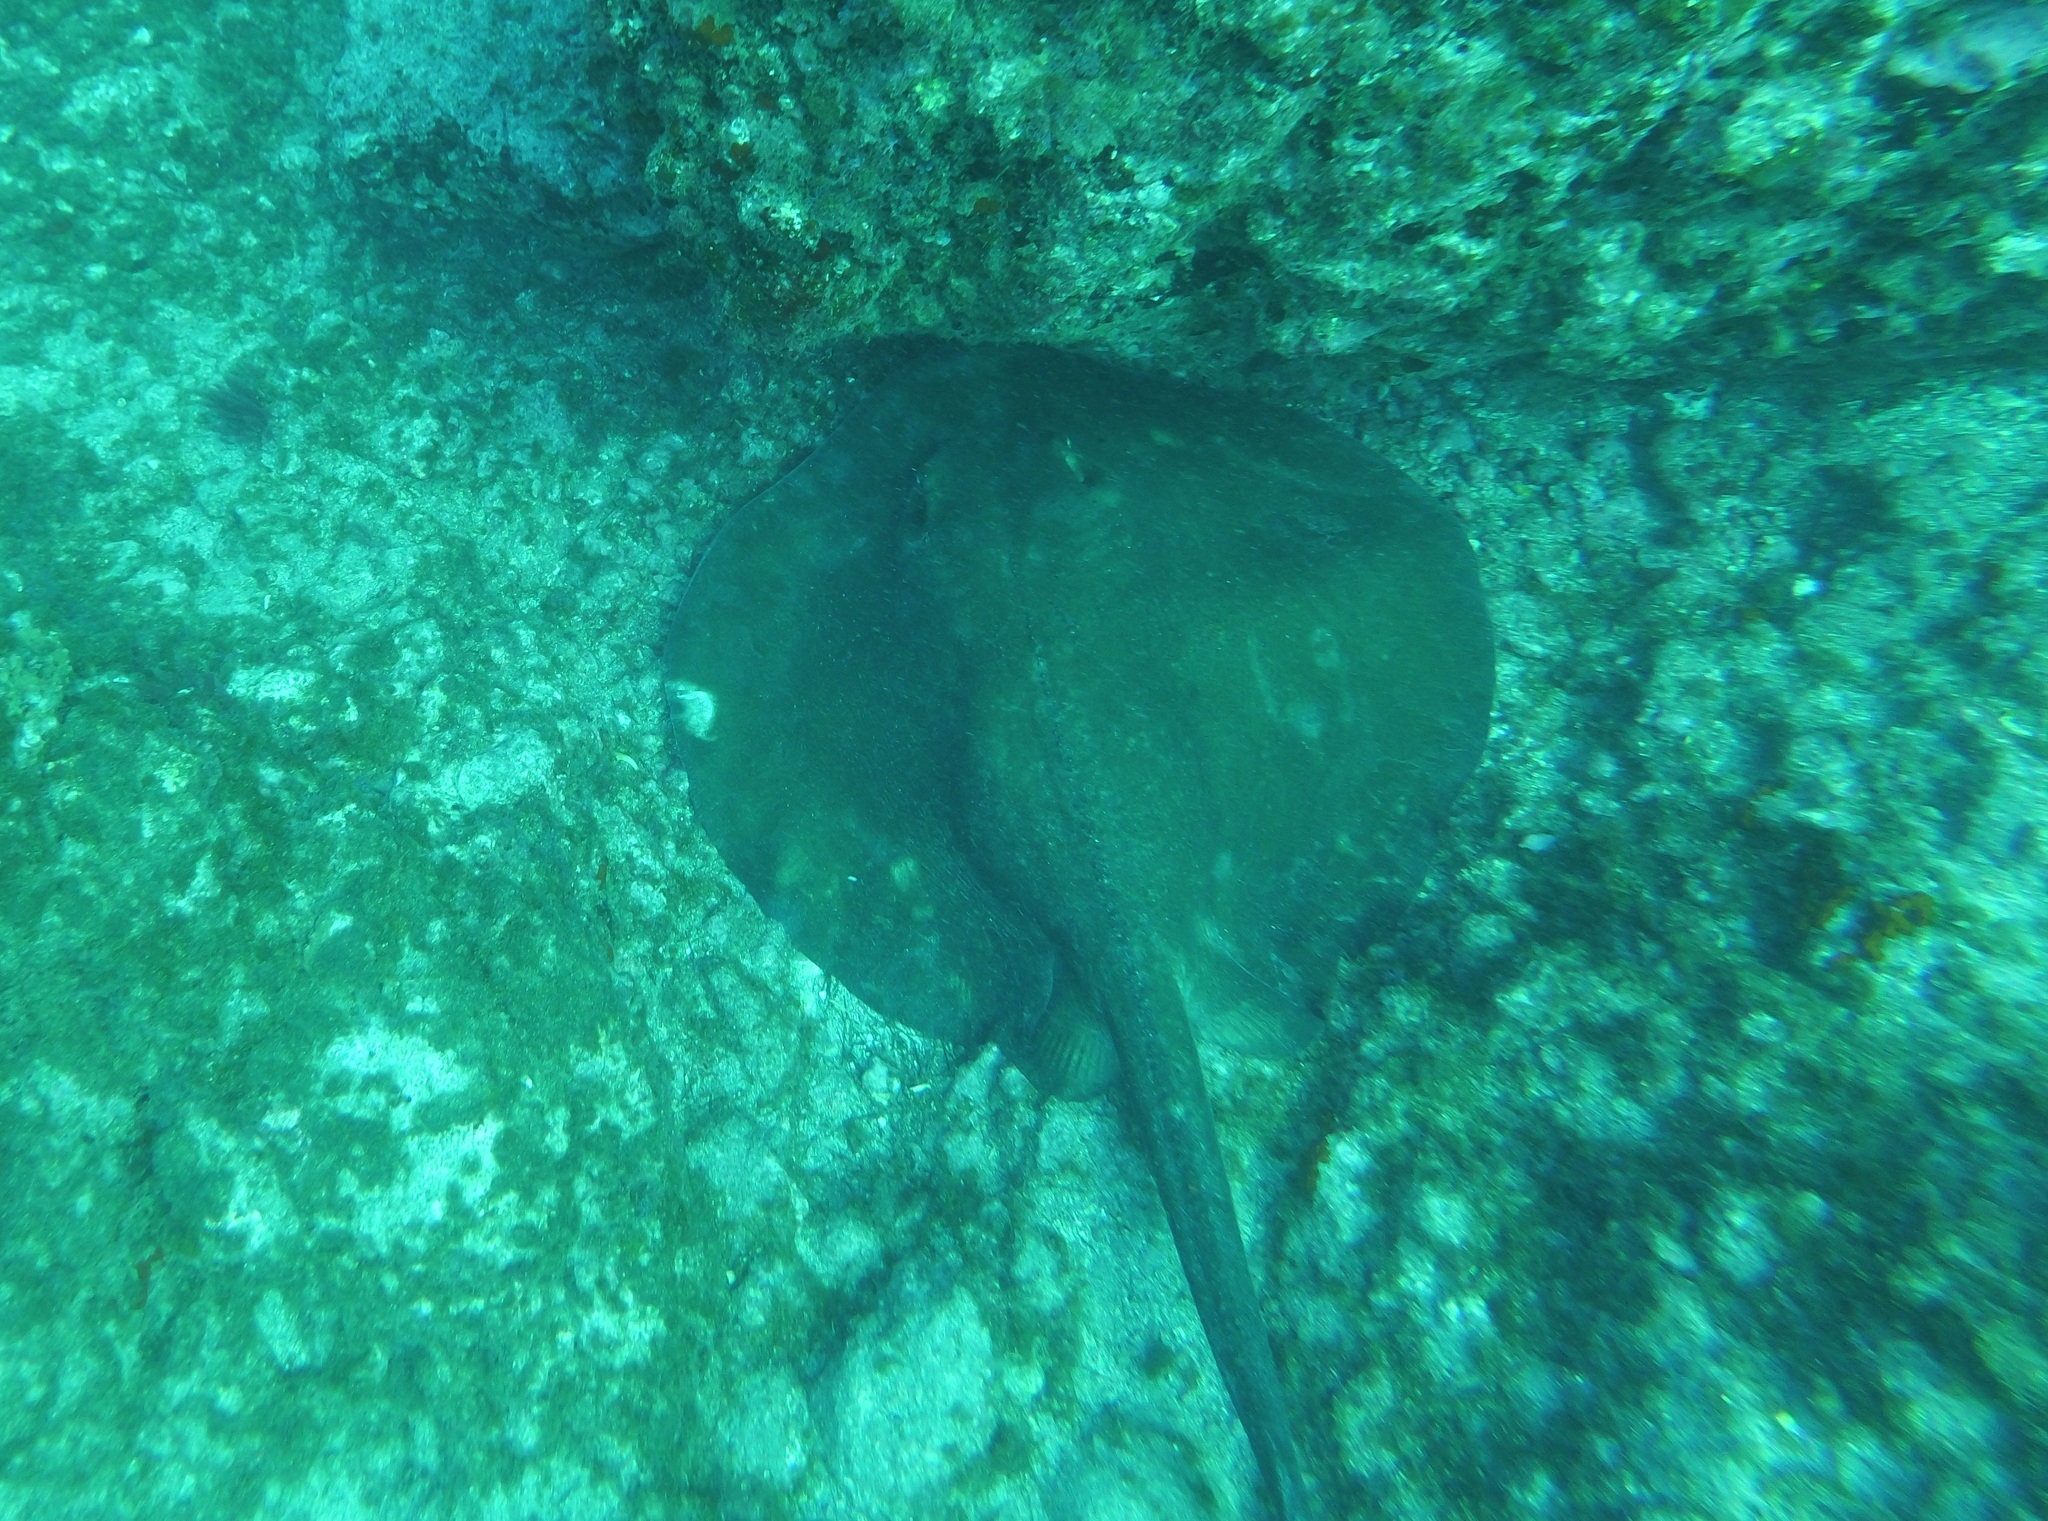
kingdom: Animalia
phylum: Chordata
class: Elasmobranchii
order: Myliobatiformes
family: Dasyatidae
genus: Taeniura
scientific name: Taeniura grabata
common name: Round stingray
